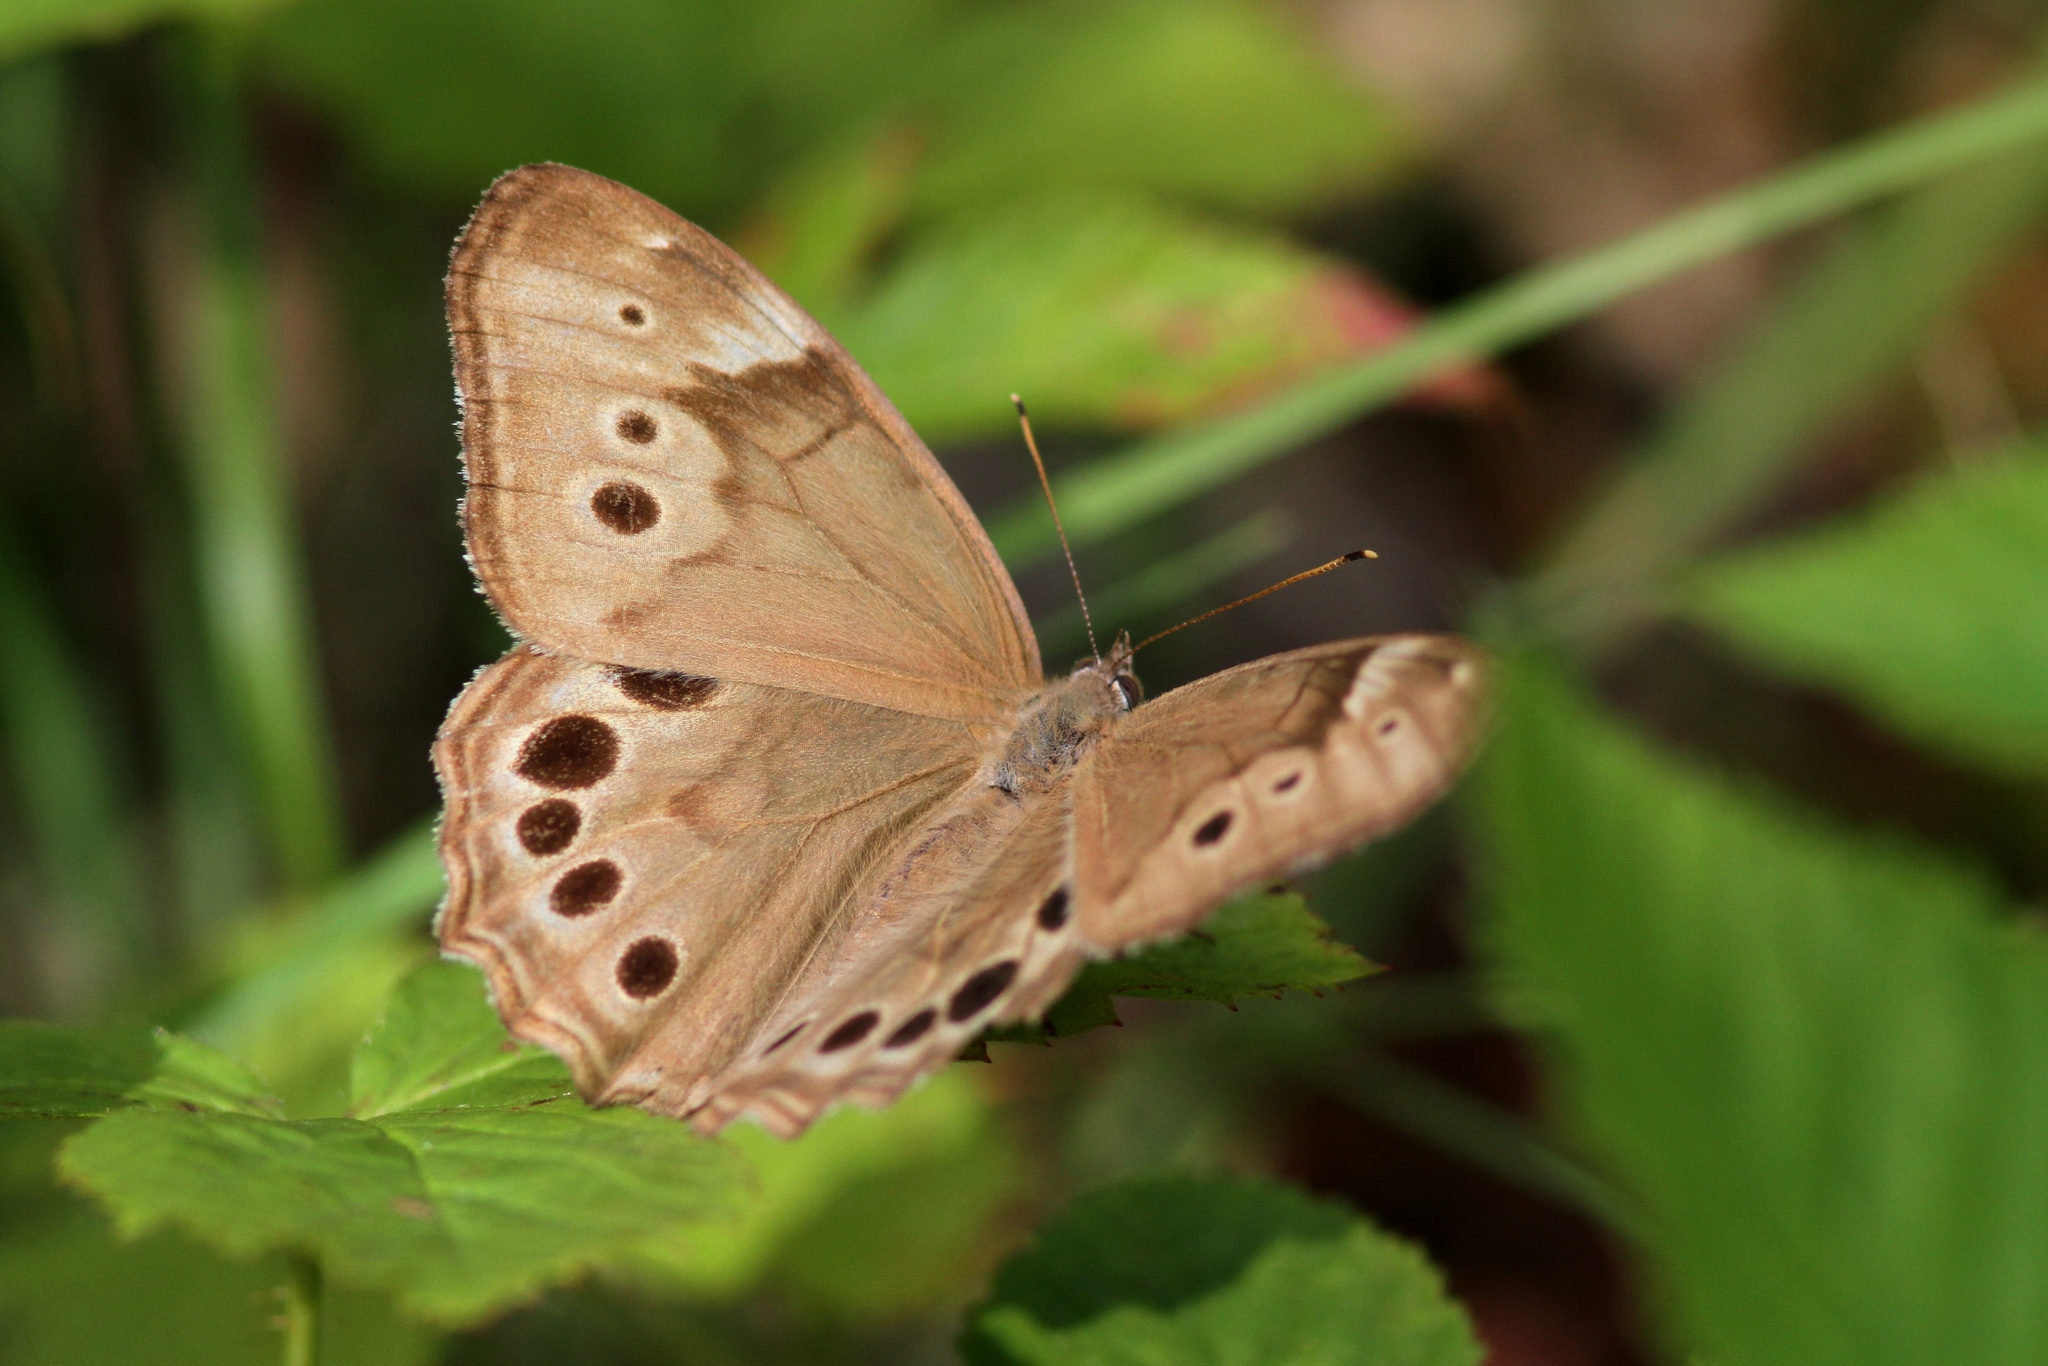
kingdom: Animalia
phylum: Arthropoda
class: Insecta
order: Lepidoptera
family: Nymphalidae
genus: Lethe
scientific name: Lethe anthedon
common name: Northern pearly-eye
